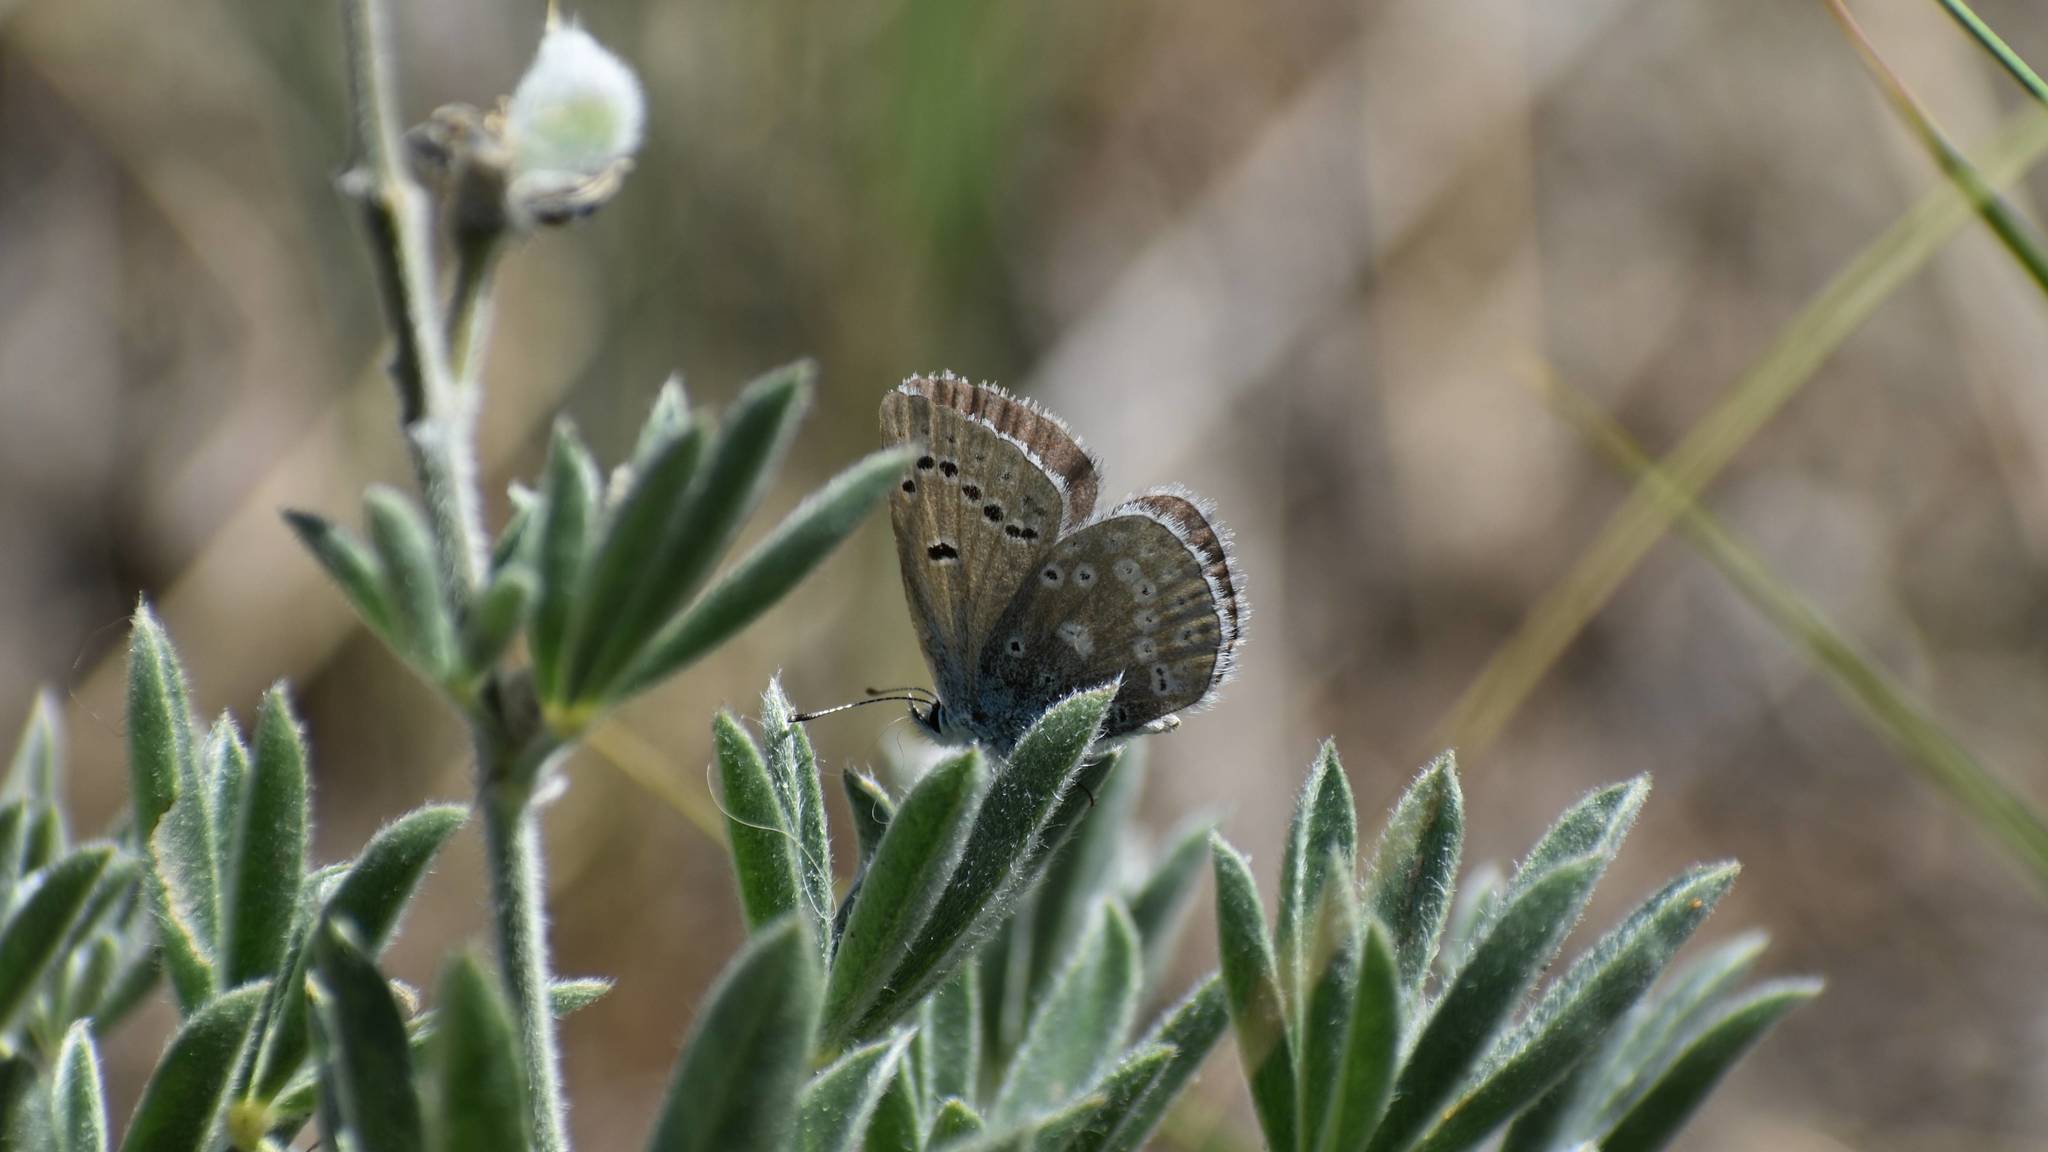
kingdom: Animalia
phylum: Arthropoda
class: Insecta
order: Lepidoptera
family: Lycaenidae
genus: Icaricia
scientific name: Icaricia icarioides
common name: Boisduval's blue
